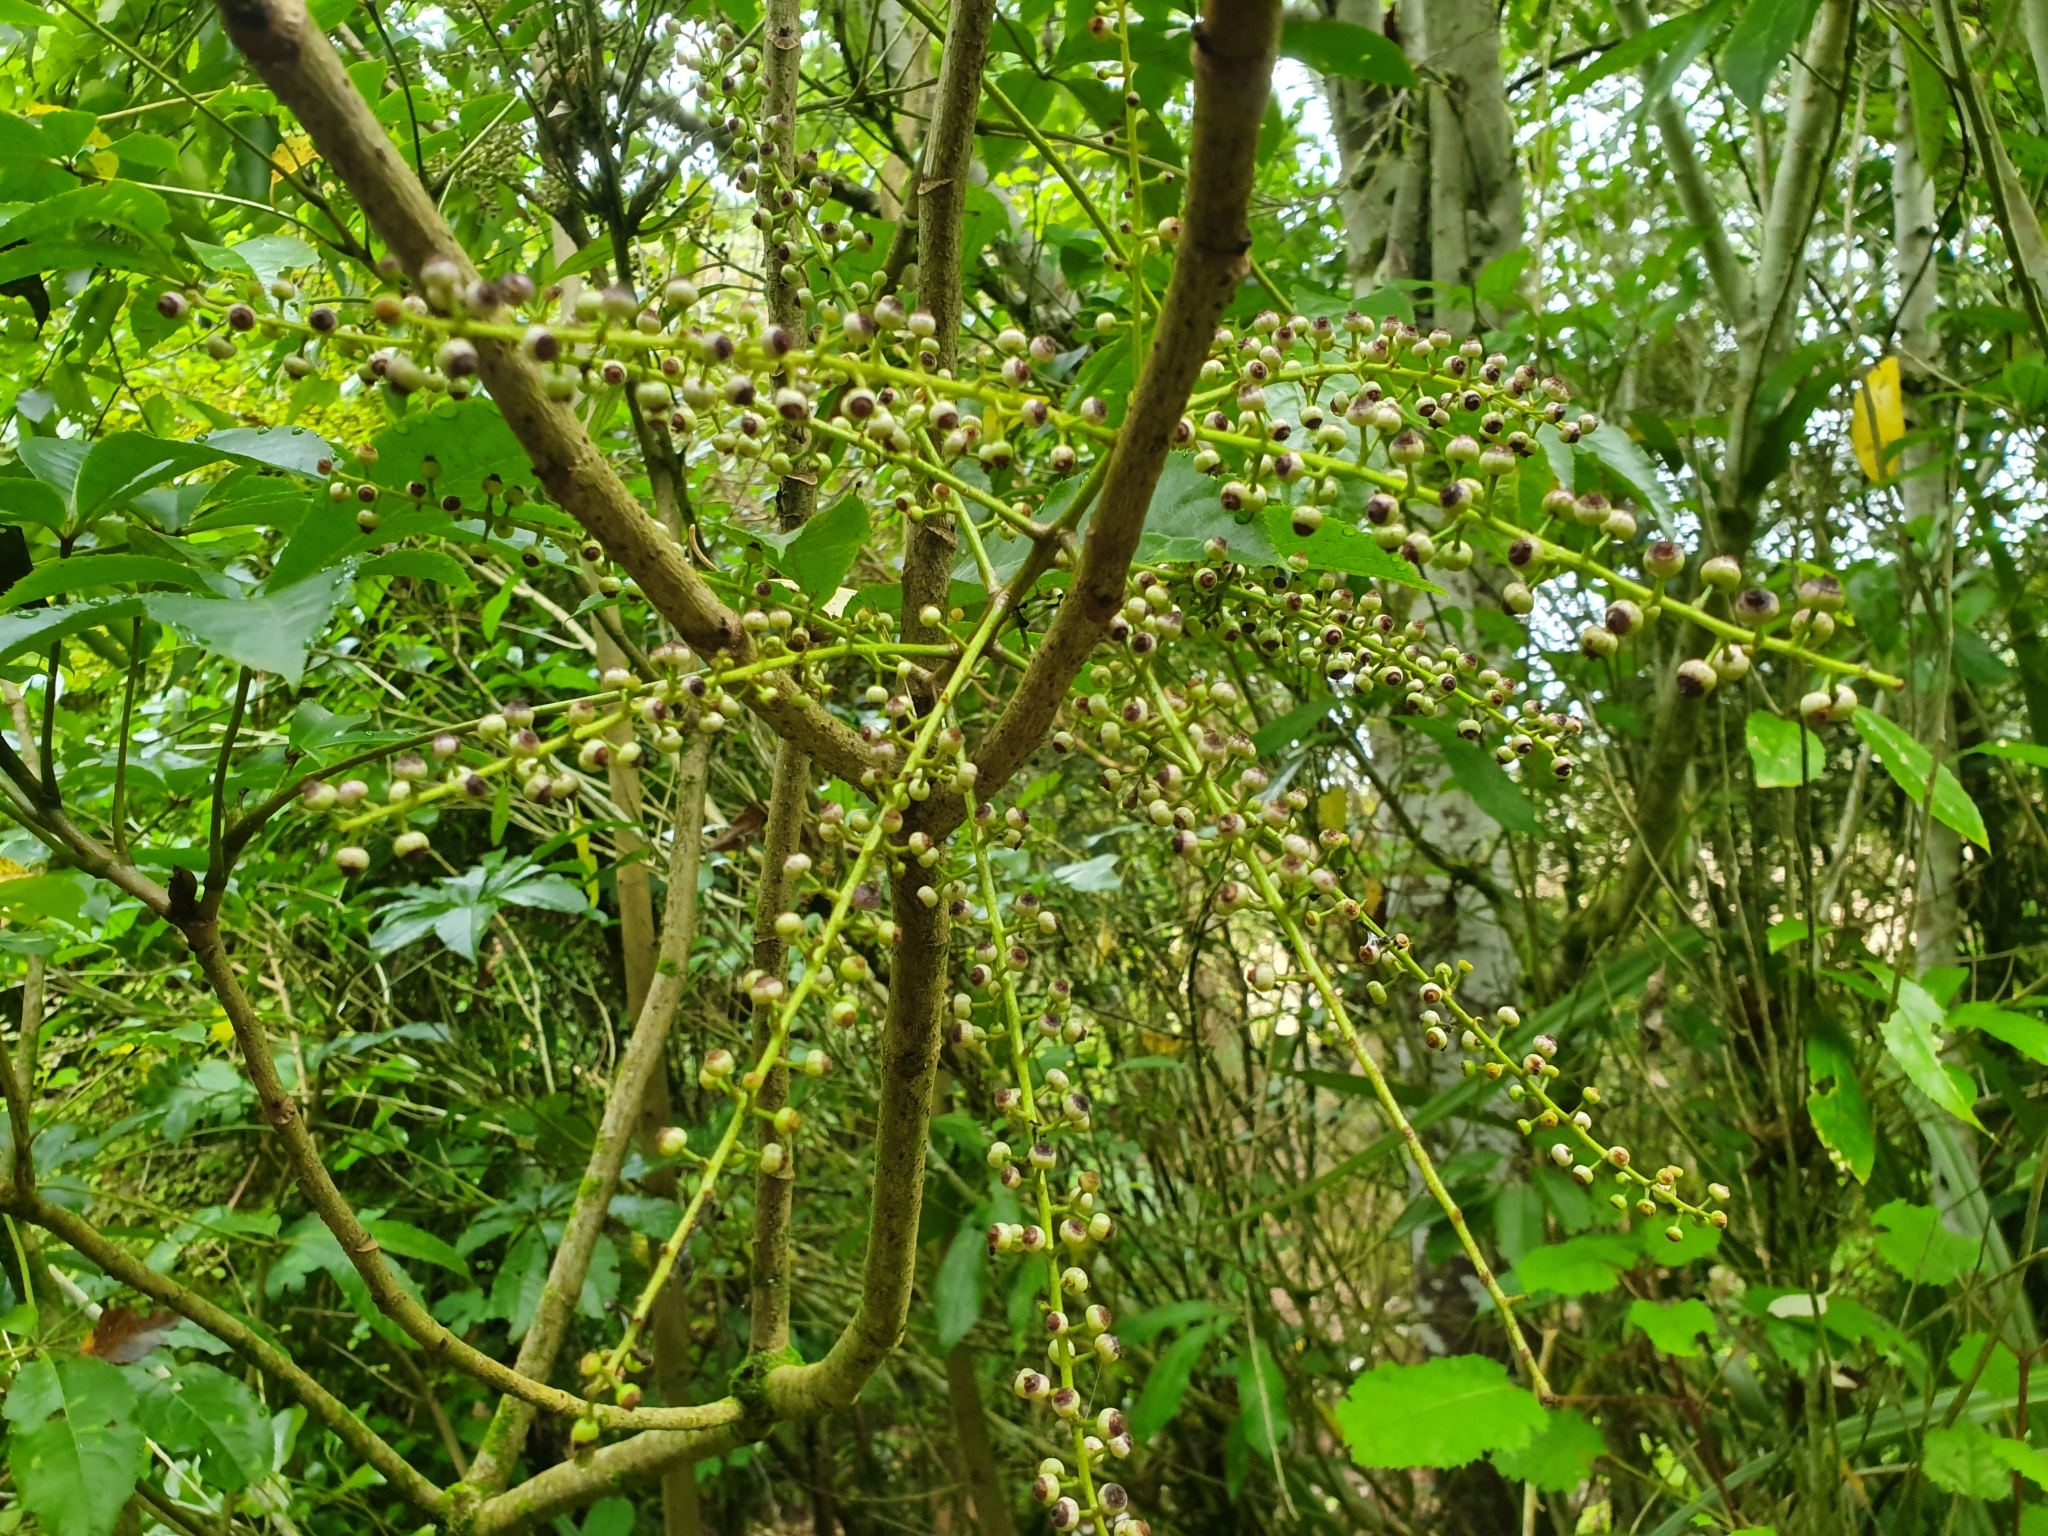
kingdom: Plantae
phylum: Tracheophyta
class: Magnoliopsida
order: Apiales
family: Araliaceae
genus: Schefflera
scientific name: Schefflera digitata
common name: Pate
